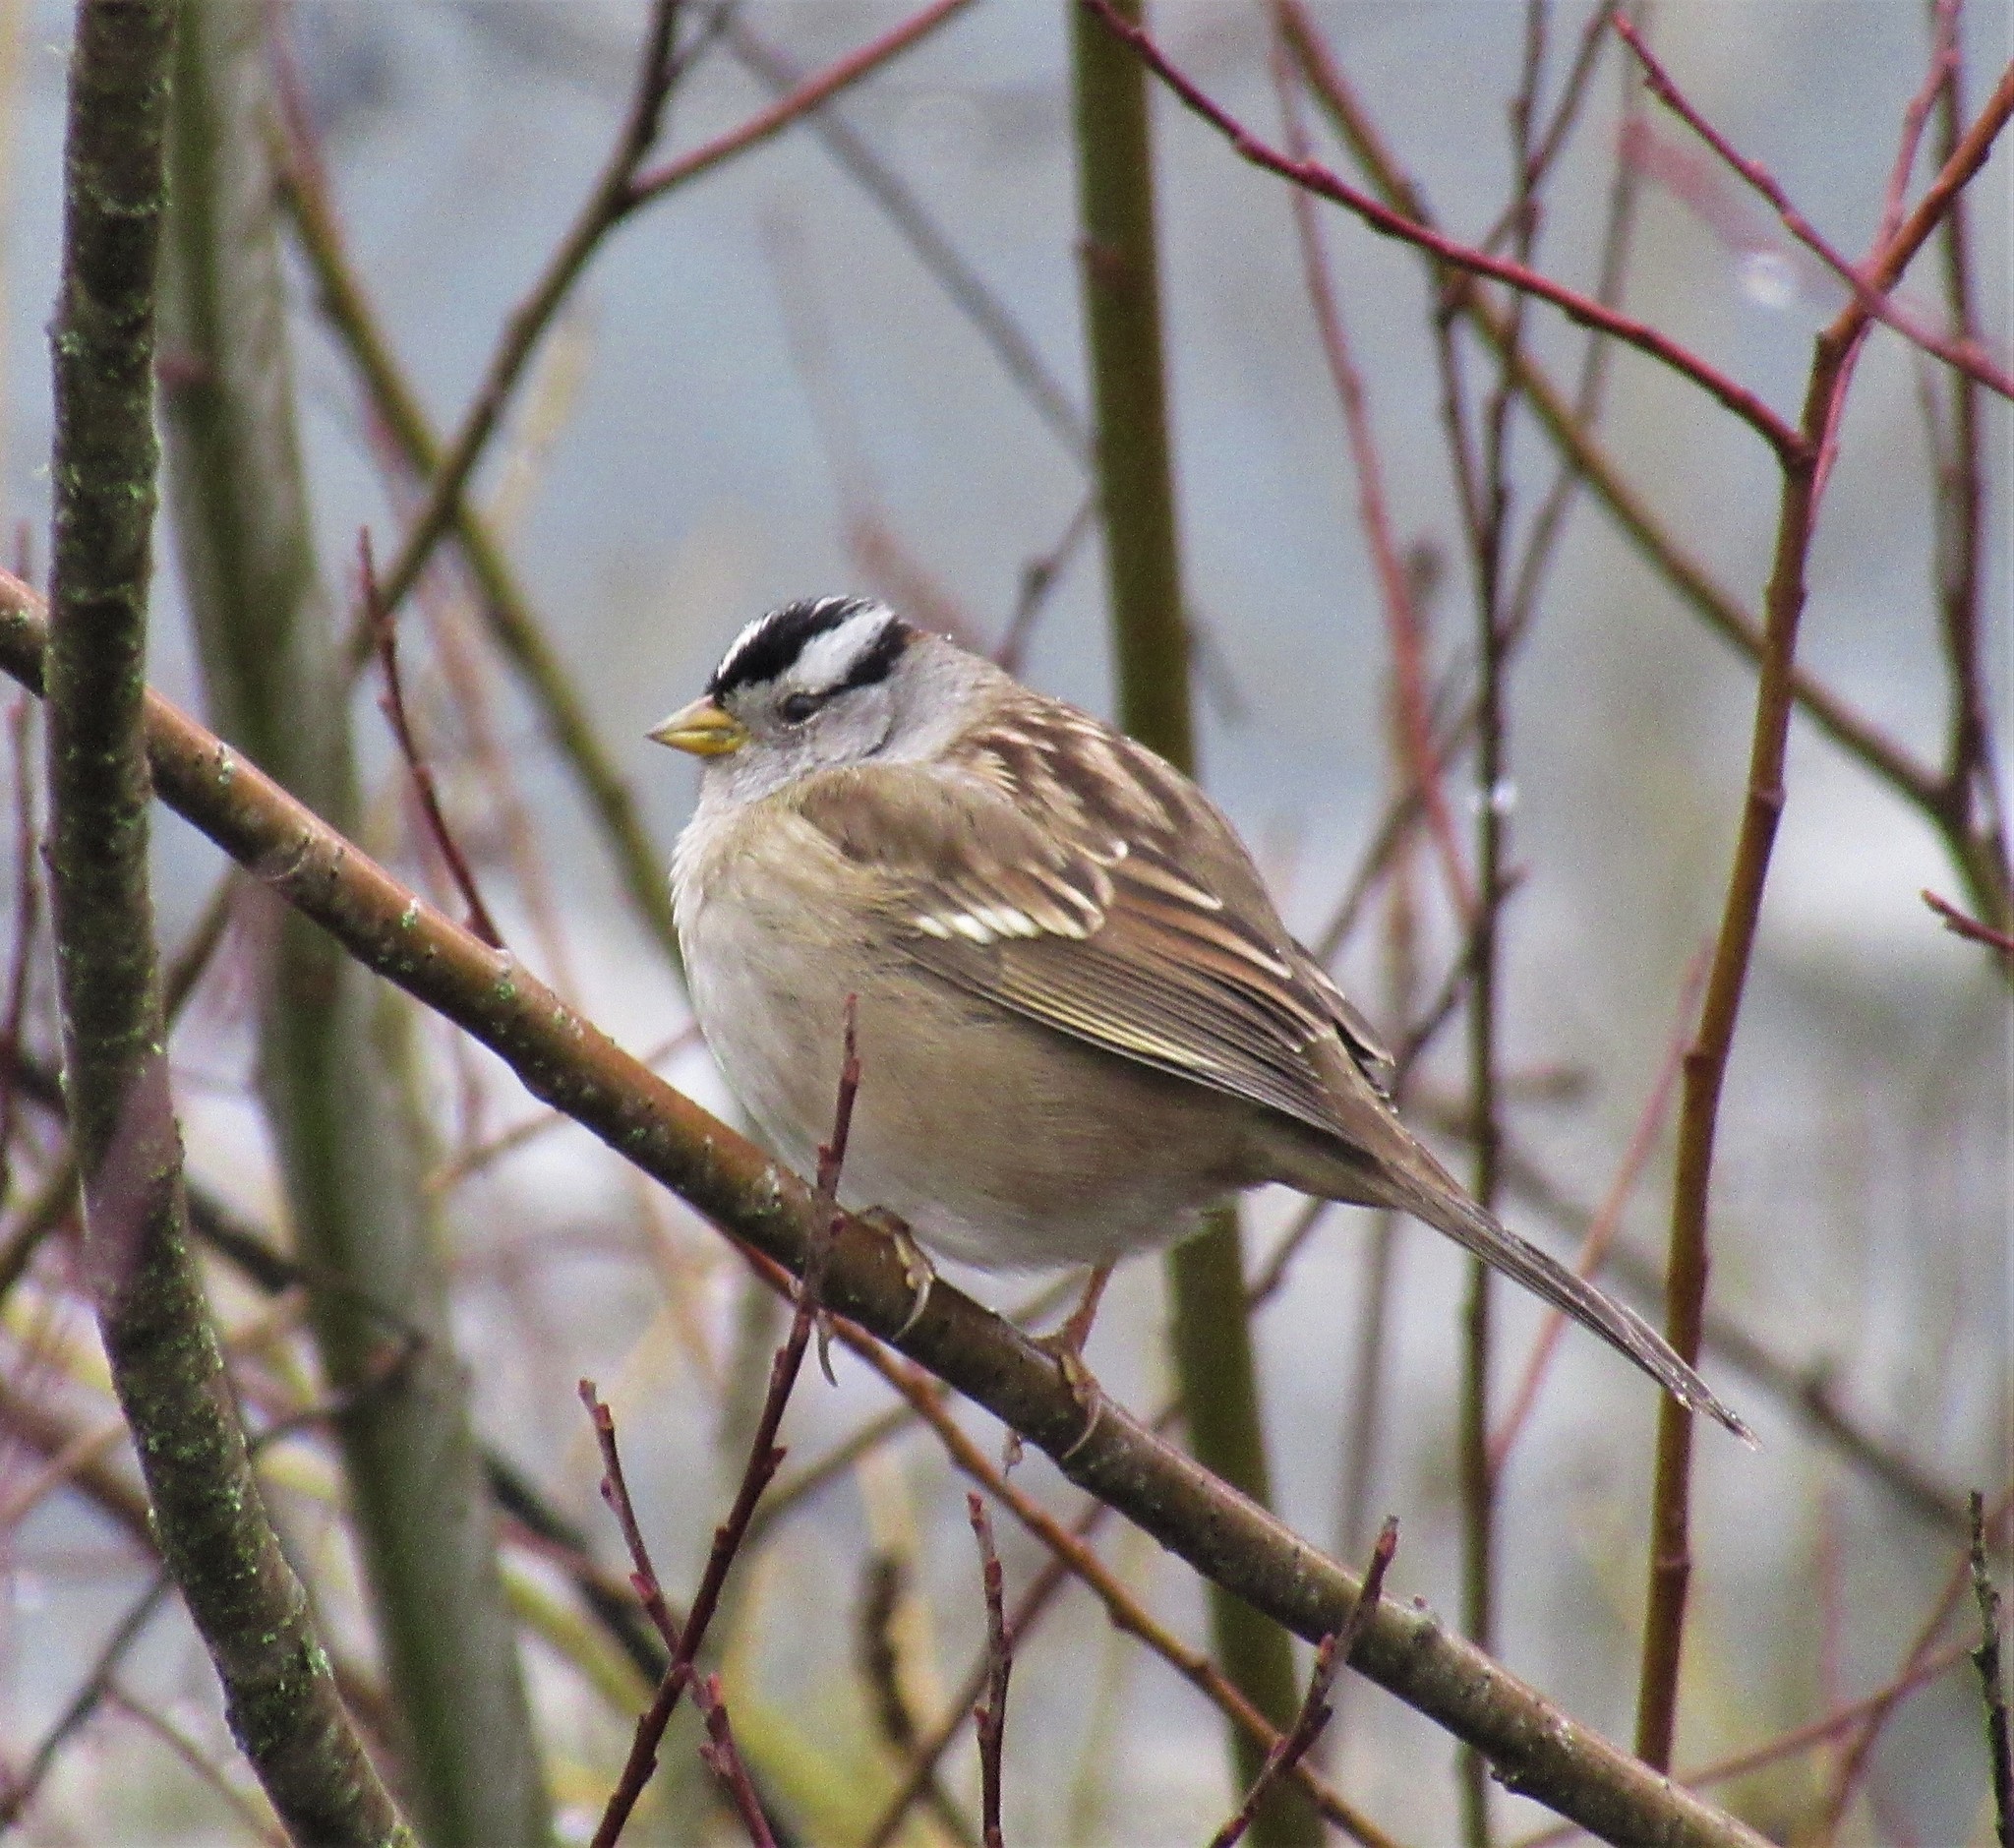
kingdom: Animalia
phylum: Chordata
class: Aves
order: Passeriformes
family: Passerellidae
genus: Zonotrichia
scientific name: Zonotrichia leucophrys
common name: White-crowned sparrow
